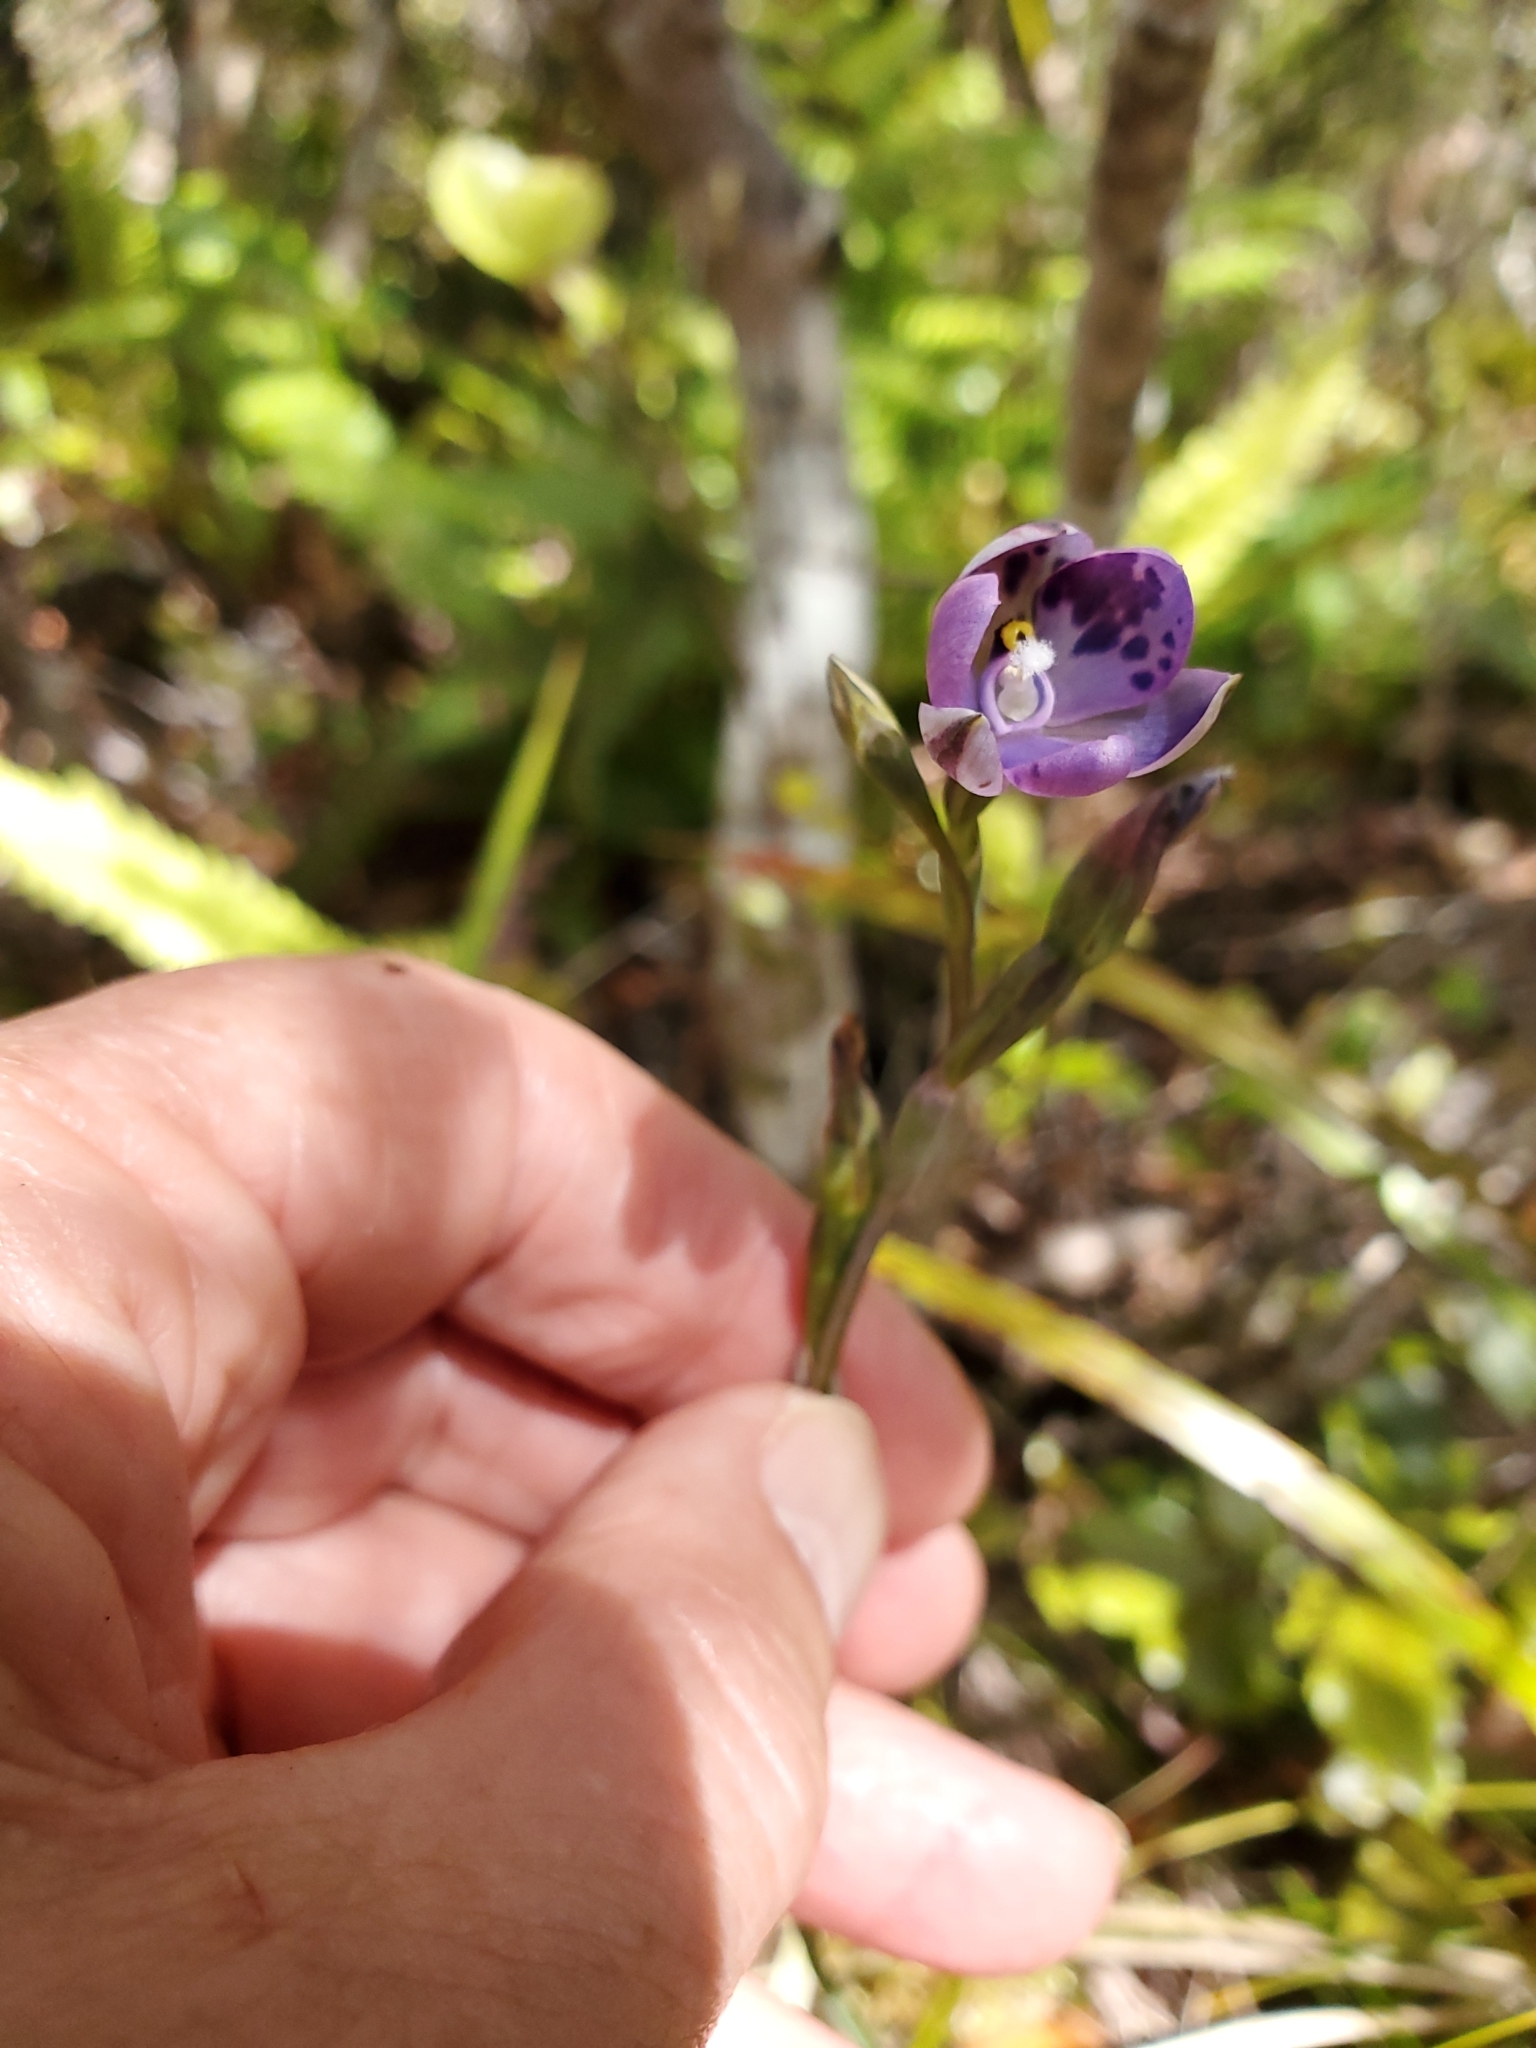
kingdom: Plantae
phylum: Tracheophyta
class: Liliopsida
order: Asparagales
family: Orchidaceae
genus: Thelymitra
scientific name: Thelymitra nervosa
